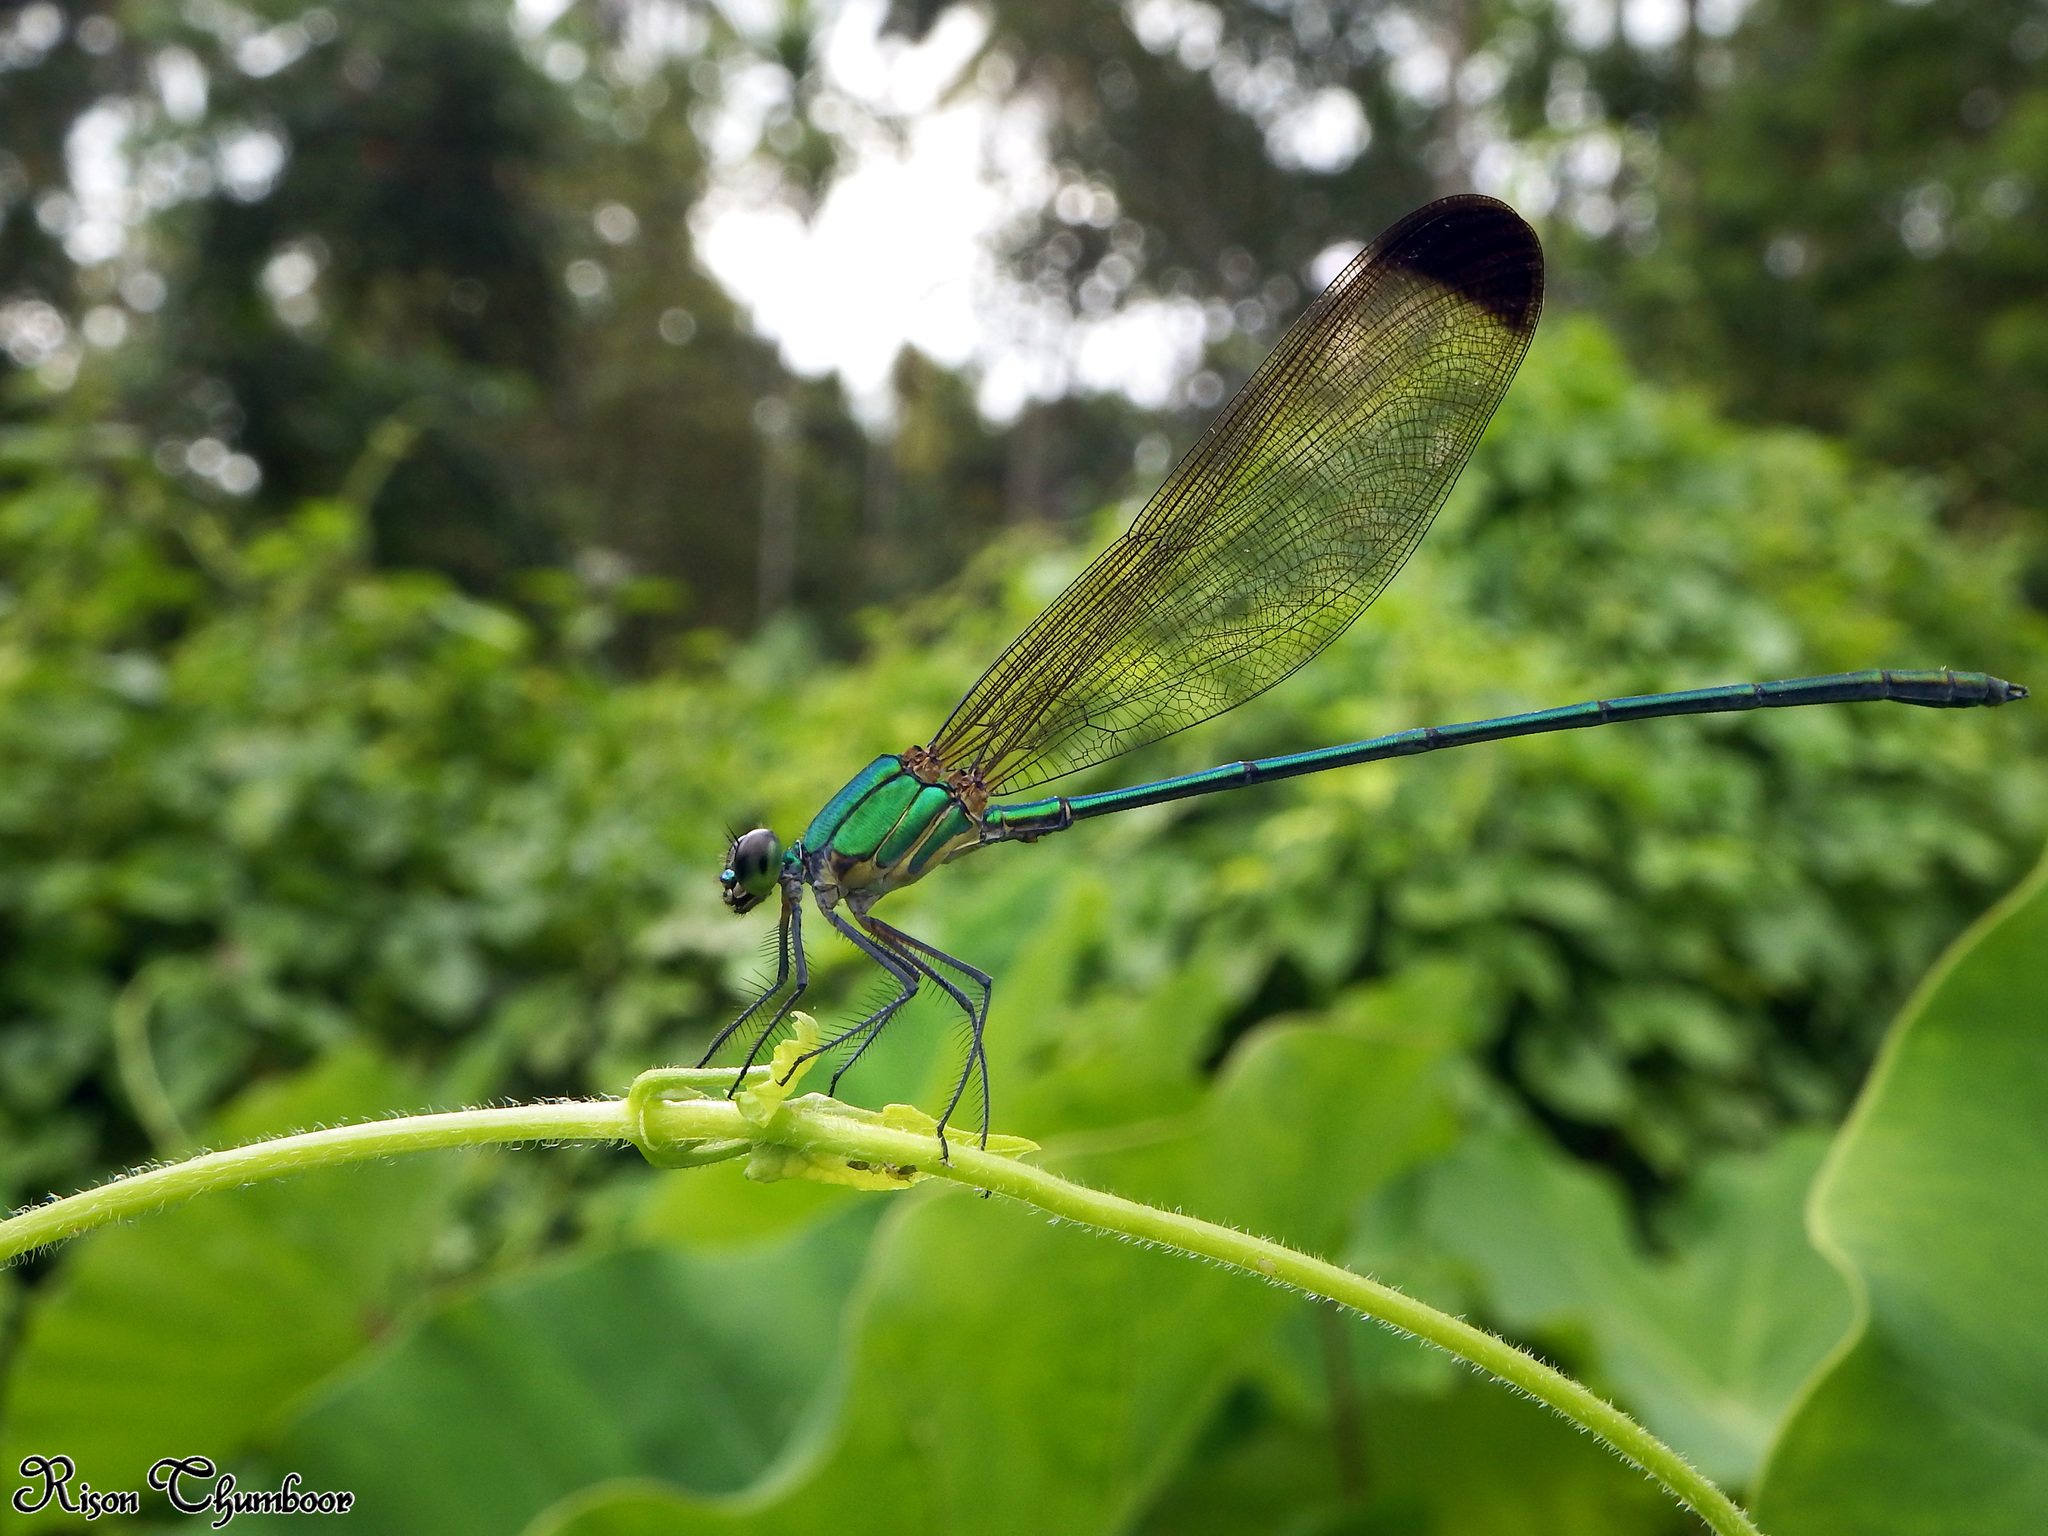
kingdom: Animalia
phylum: Arthropoda
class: Insecta
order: Odonata
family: Calopterygidae
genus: Vestalis
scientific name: Vestalis apicalis
